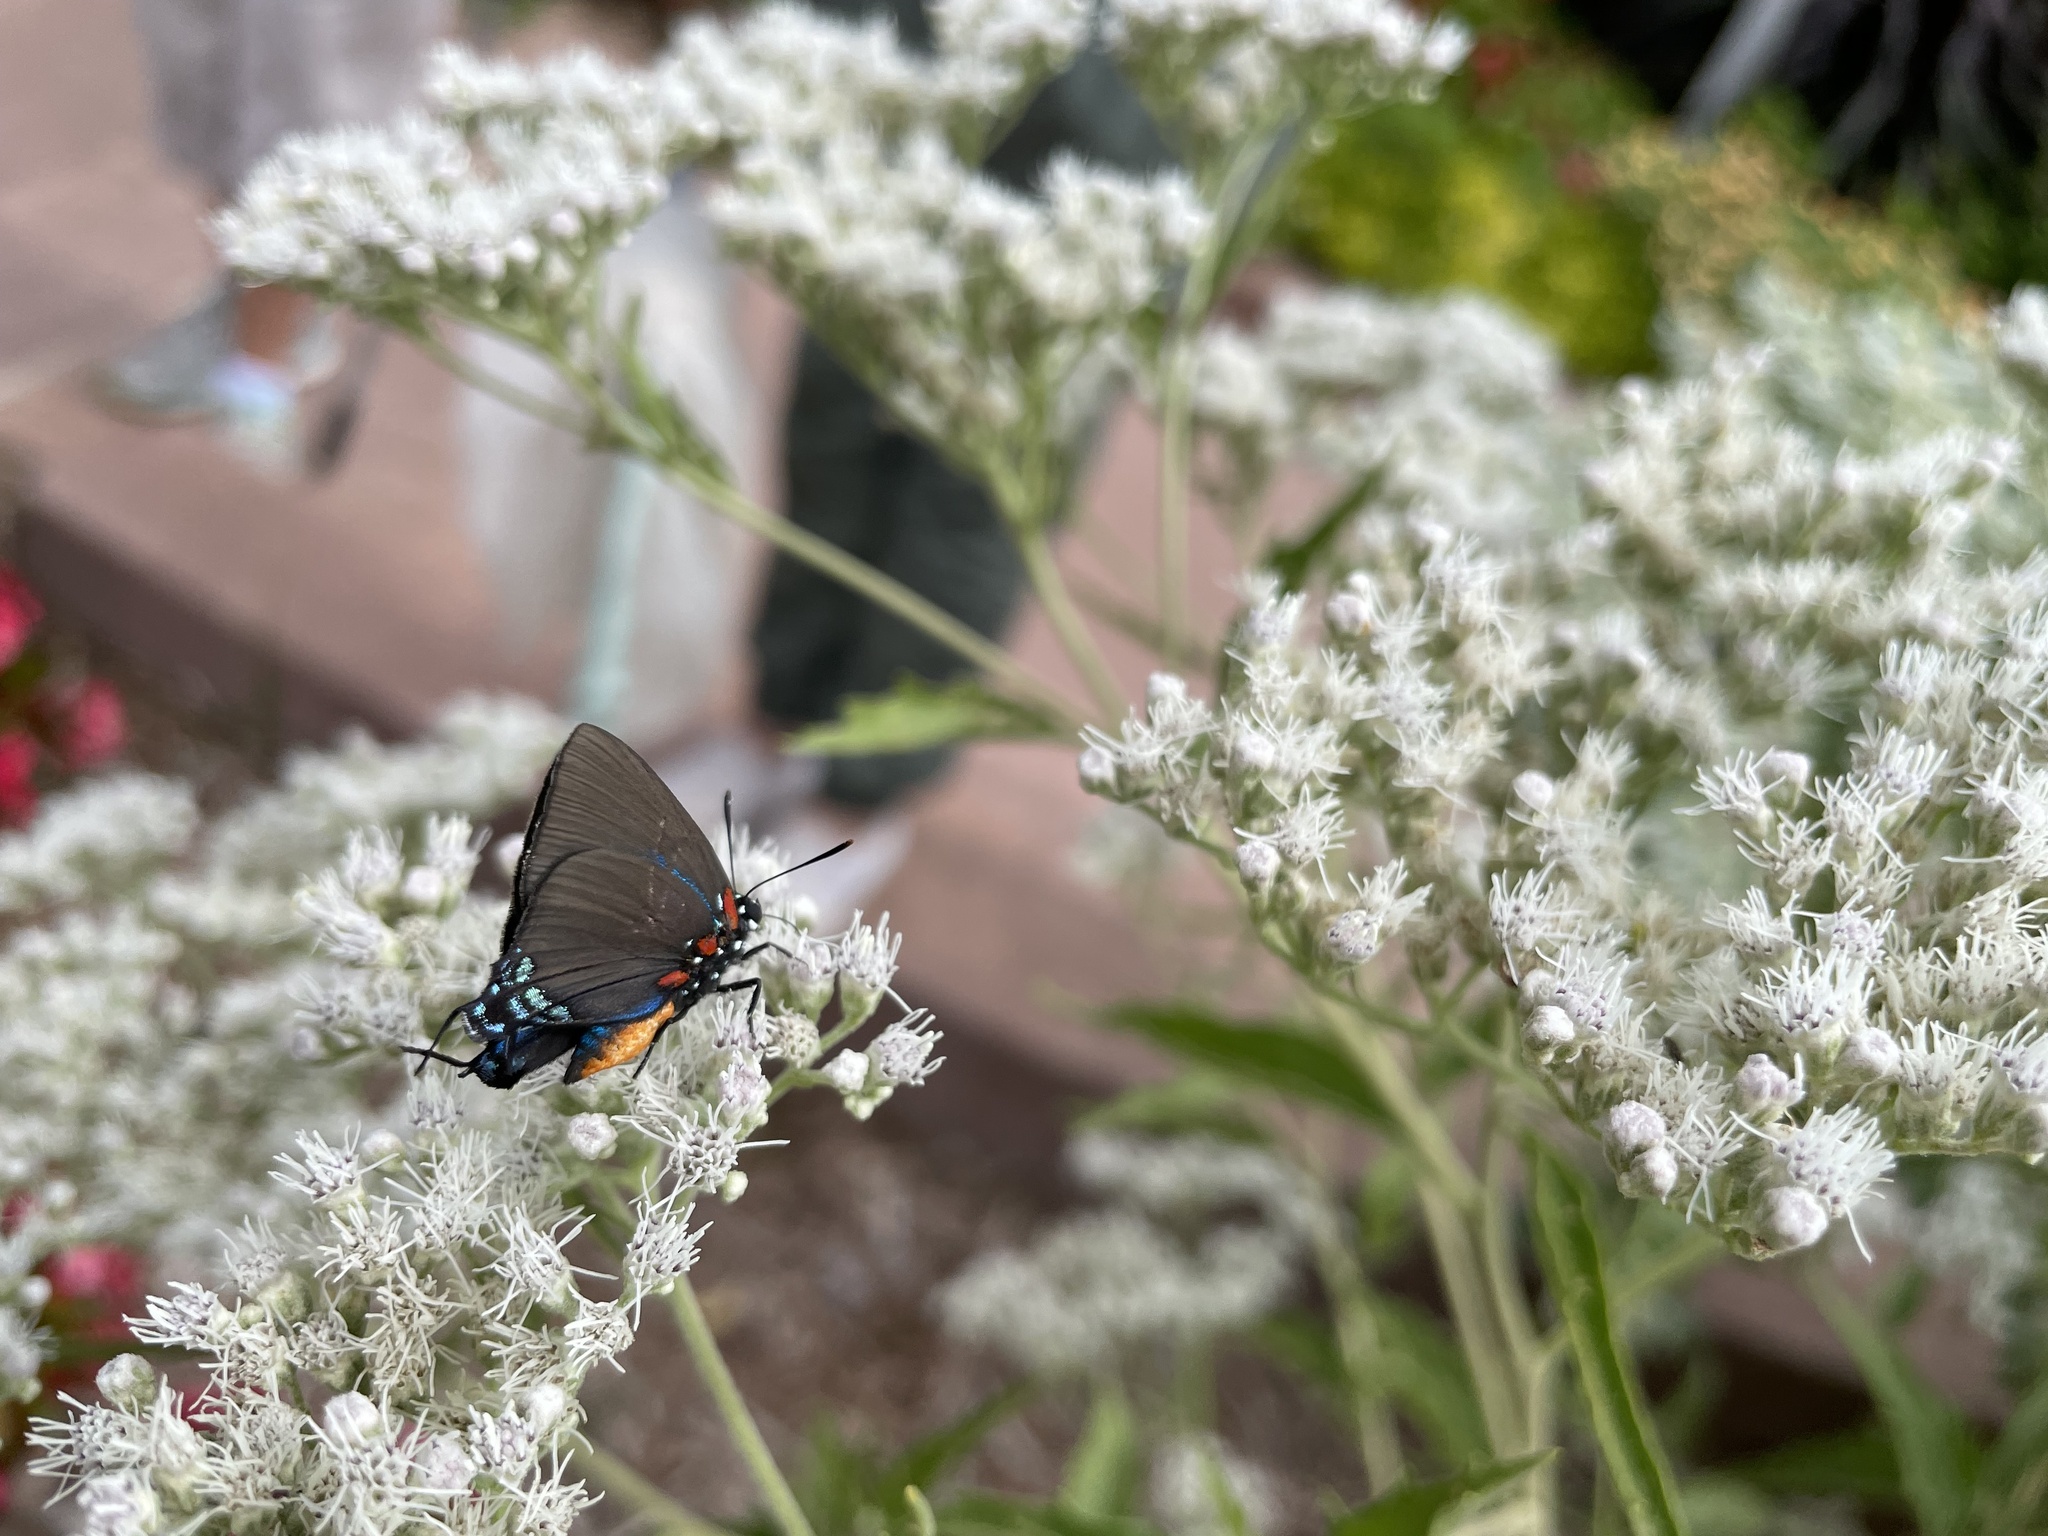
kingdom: Animalia
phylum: Arthropoda
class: Insecta
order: Lepidoptera
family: Lycaenidae
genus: Atlides
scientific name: Atlides halesus
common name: Great purple hairstreak
